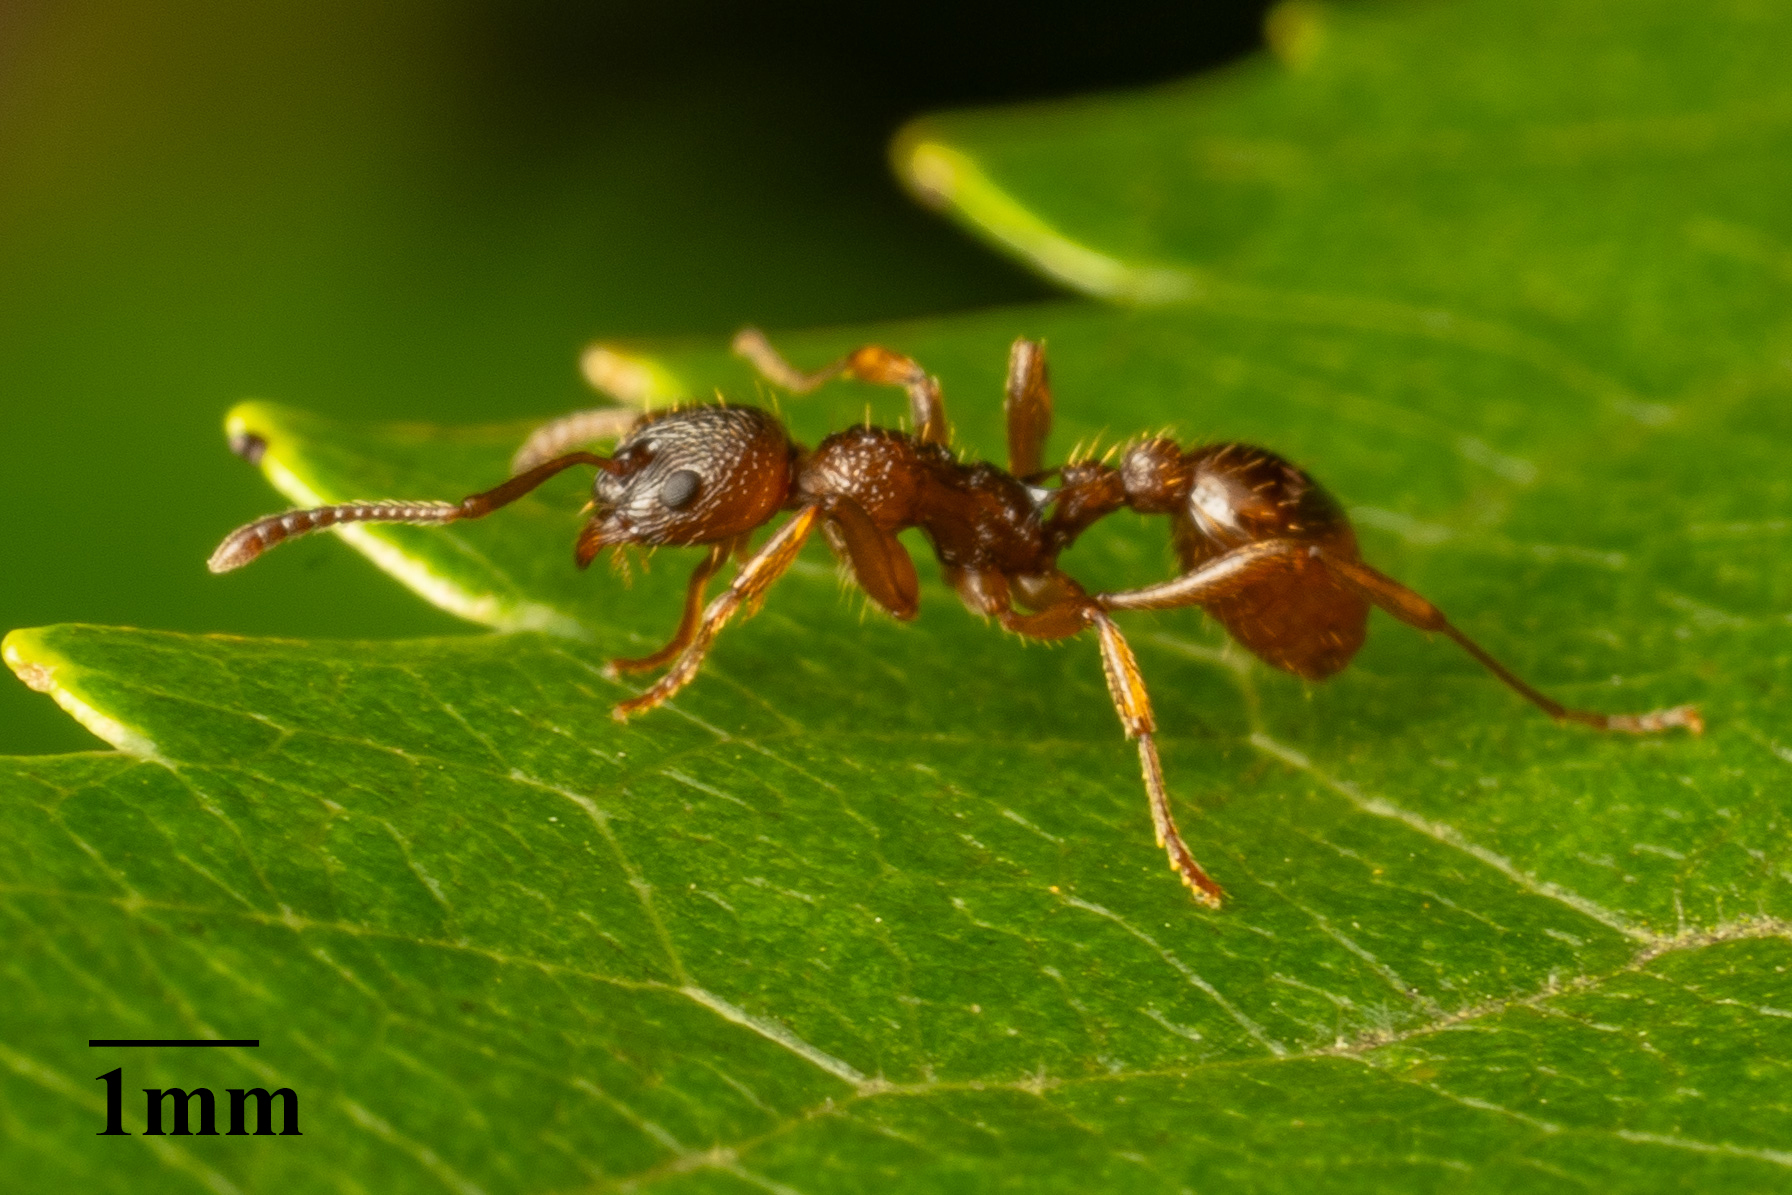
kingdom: Animalia
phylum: Arthropoda
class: Insecta
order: Hymenoptera
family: Formicidae
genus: Myrmica
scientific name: Myrmica ruginodis
